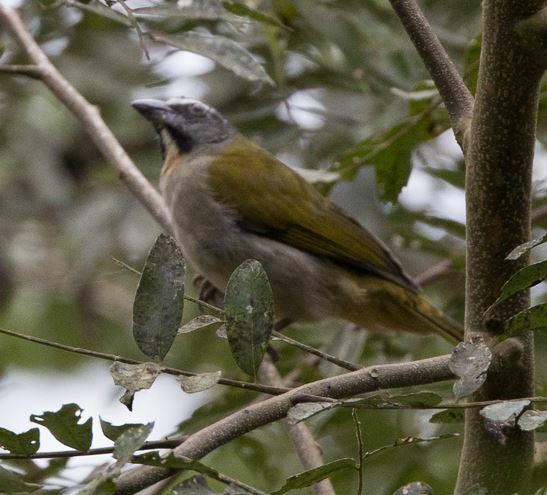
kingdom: Animalia
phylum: Chordata
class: Aves
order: Passeriformes
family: Thraupidae
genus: Saltator
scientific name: Saltator maximus
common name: Buff-throated saltator
